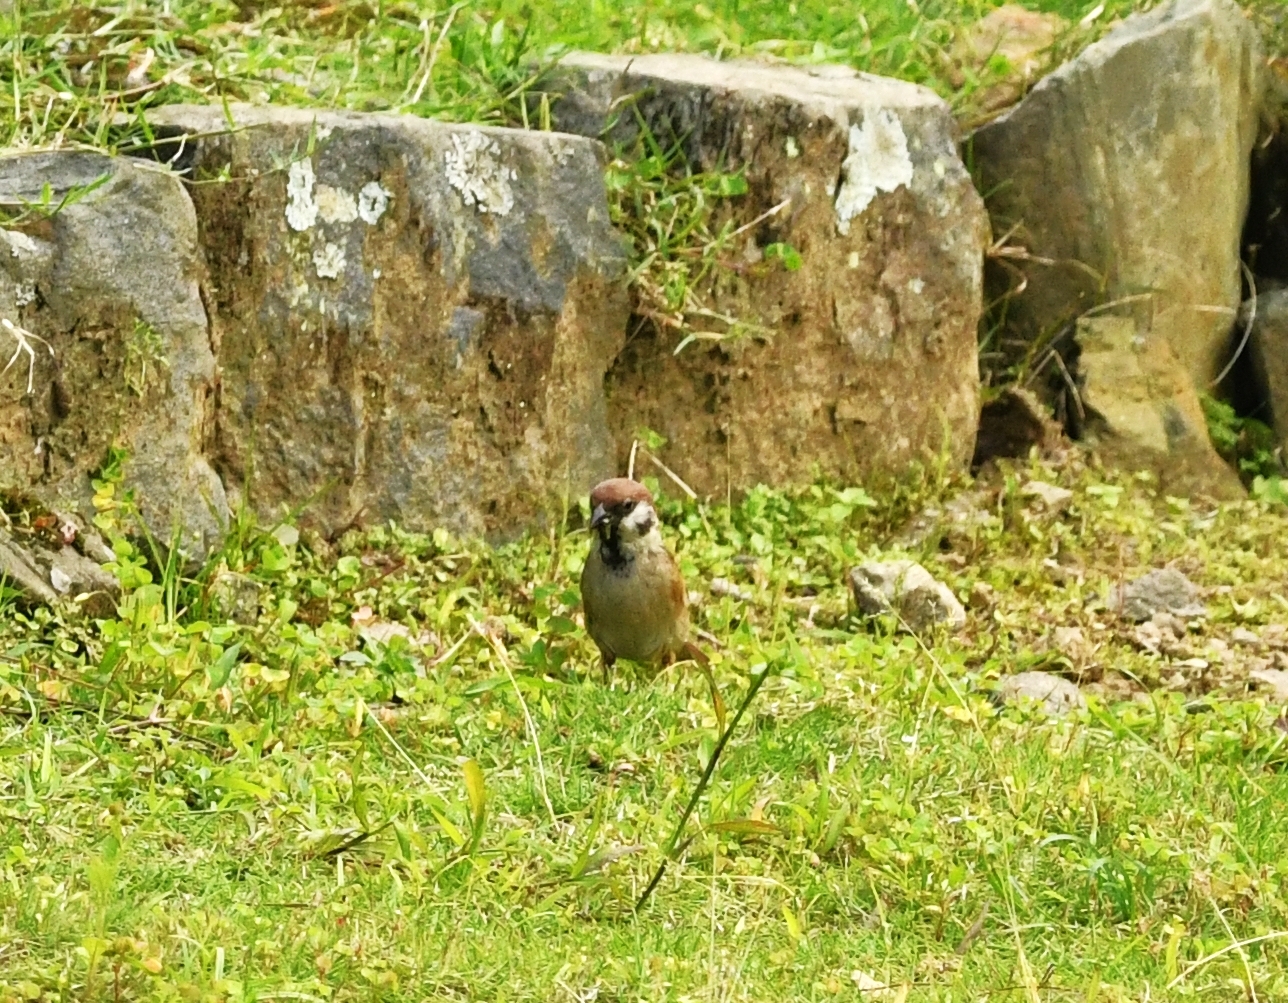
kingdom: Animalia
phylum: Chordata
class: Aves
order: Passeriformes
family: Passeridae
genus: Passer
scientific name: Passer montanus
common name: Eurasian tree sparrow
